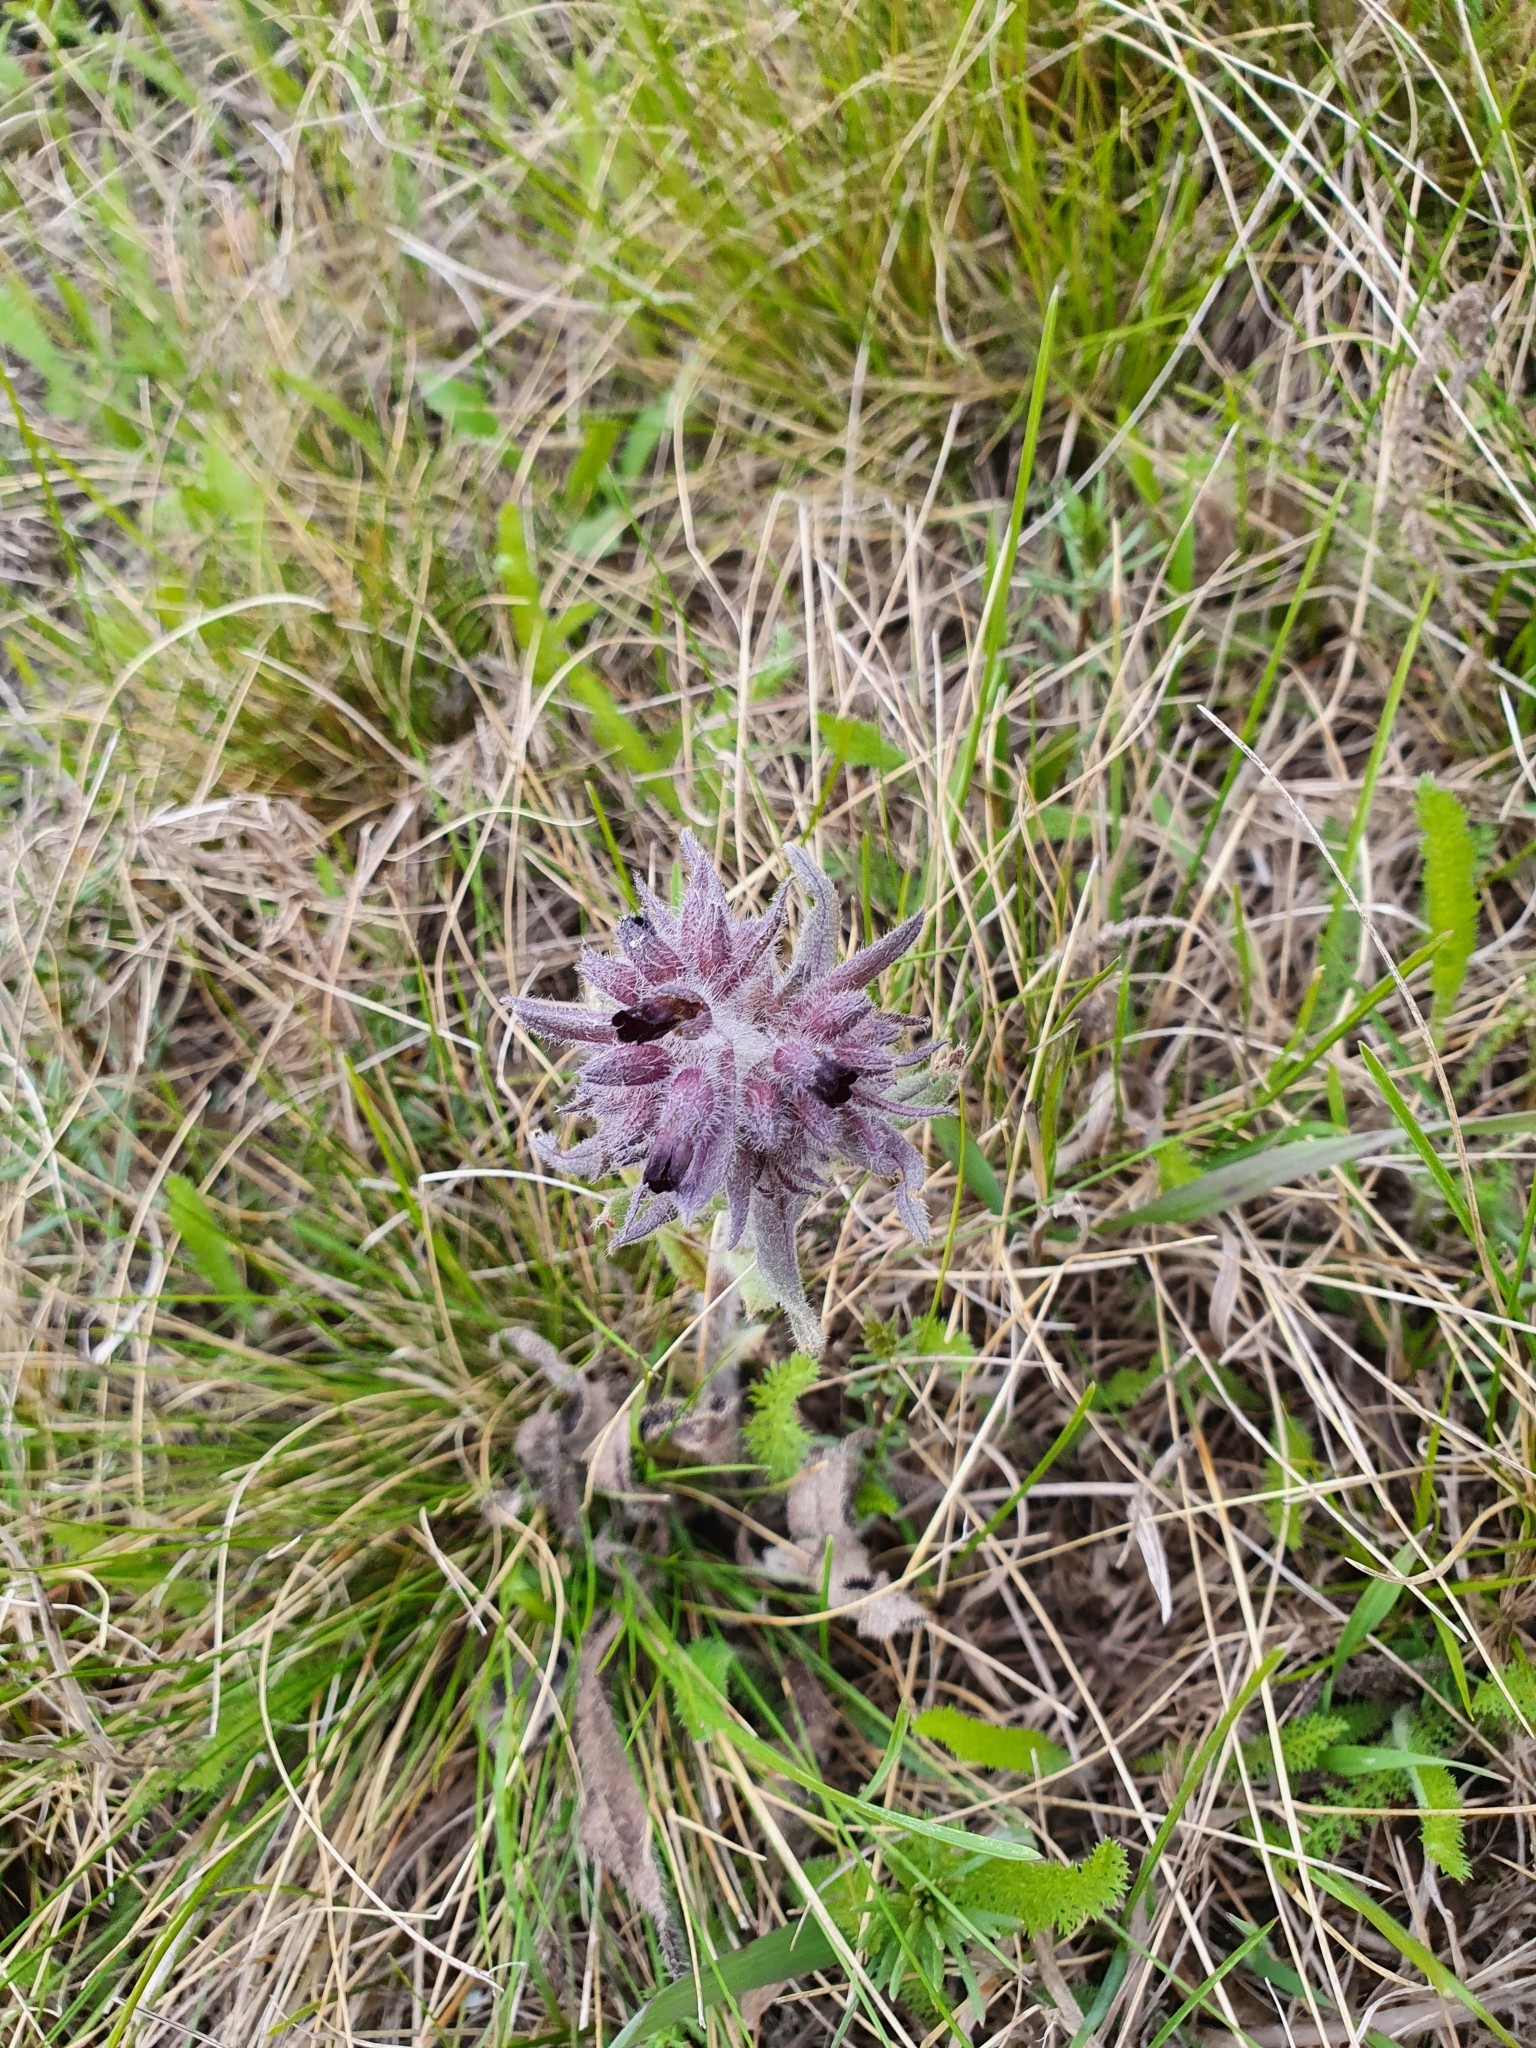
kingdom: Plantae
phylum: Tracheophyta
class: Magnoliopsida
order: Boraginales
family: Boraginaceae
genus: Nonea
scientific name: Nonea pulla
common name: Brown nonea
